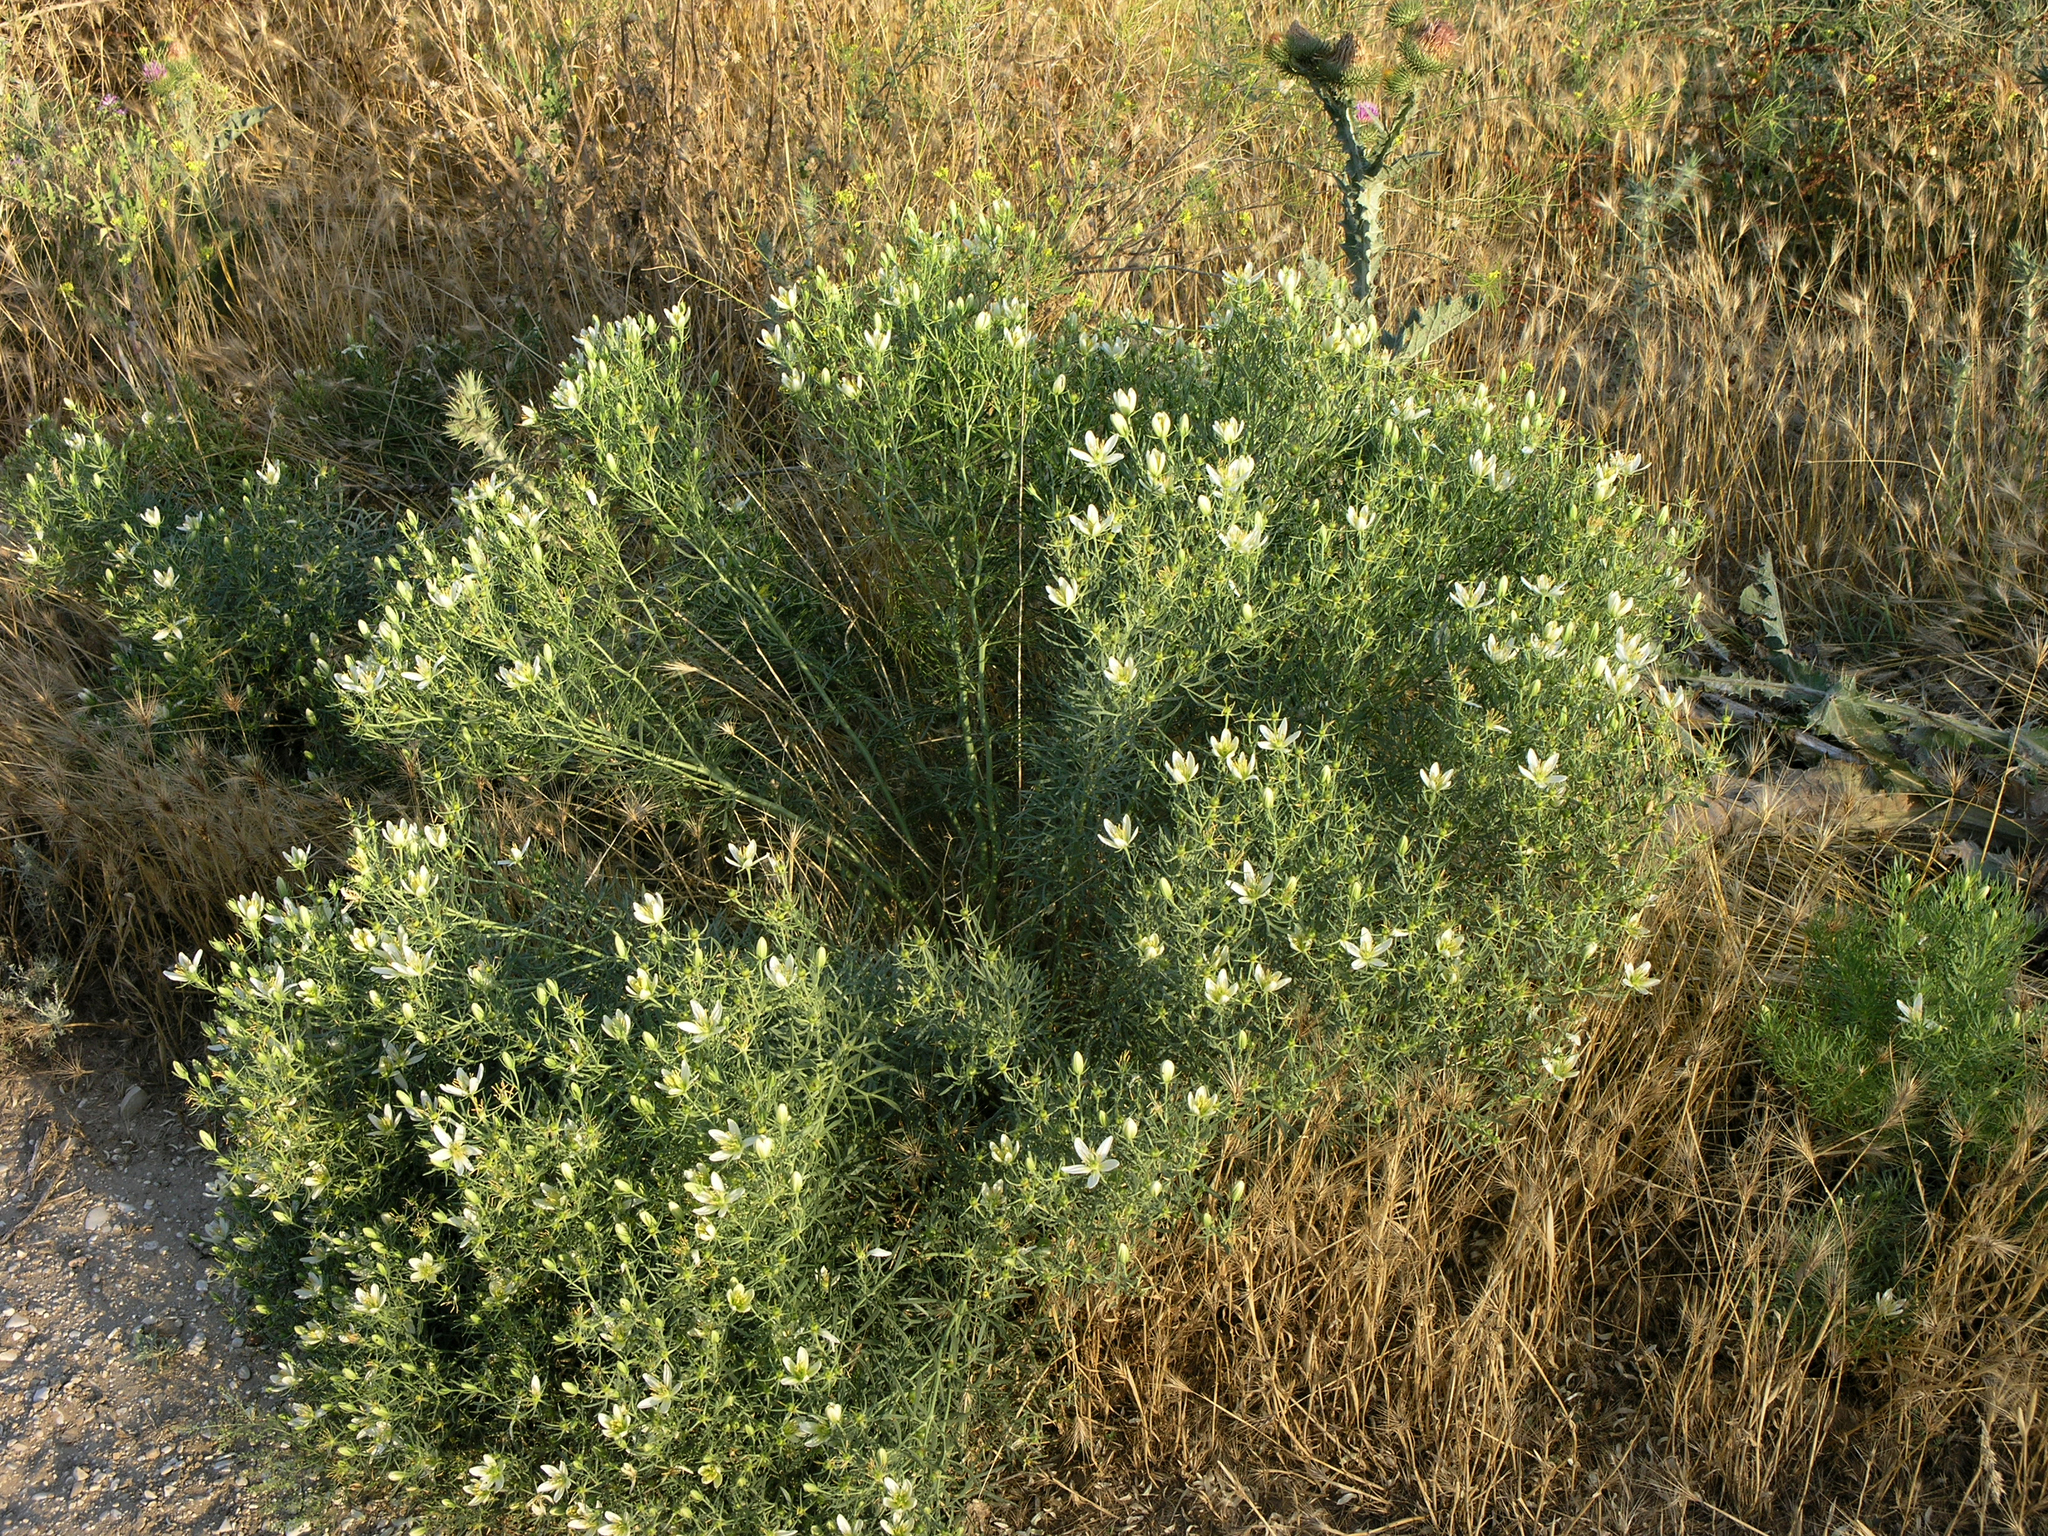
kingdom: Plantae
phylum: Tracheophyta
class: Magnoliopsida
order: Sapindales
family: Tetradiclidaceae
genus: Peganum
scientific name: Peganum harmala
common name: Harmal peganum
